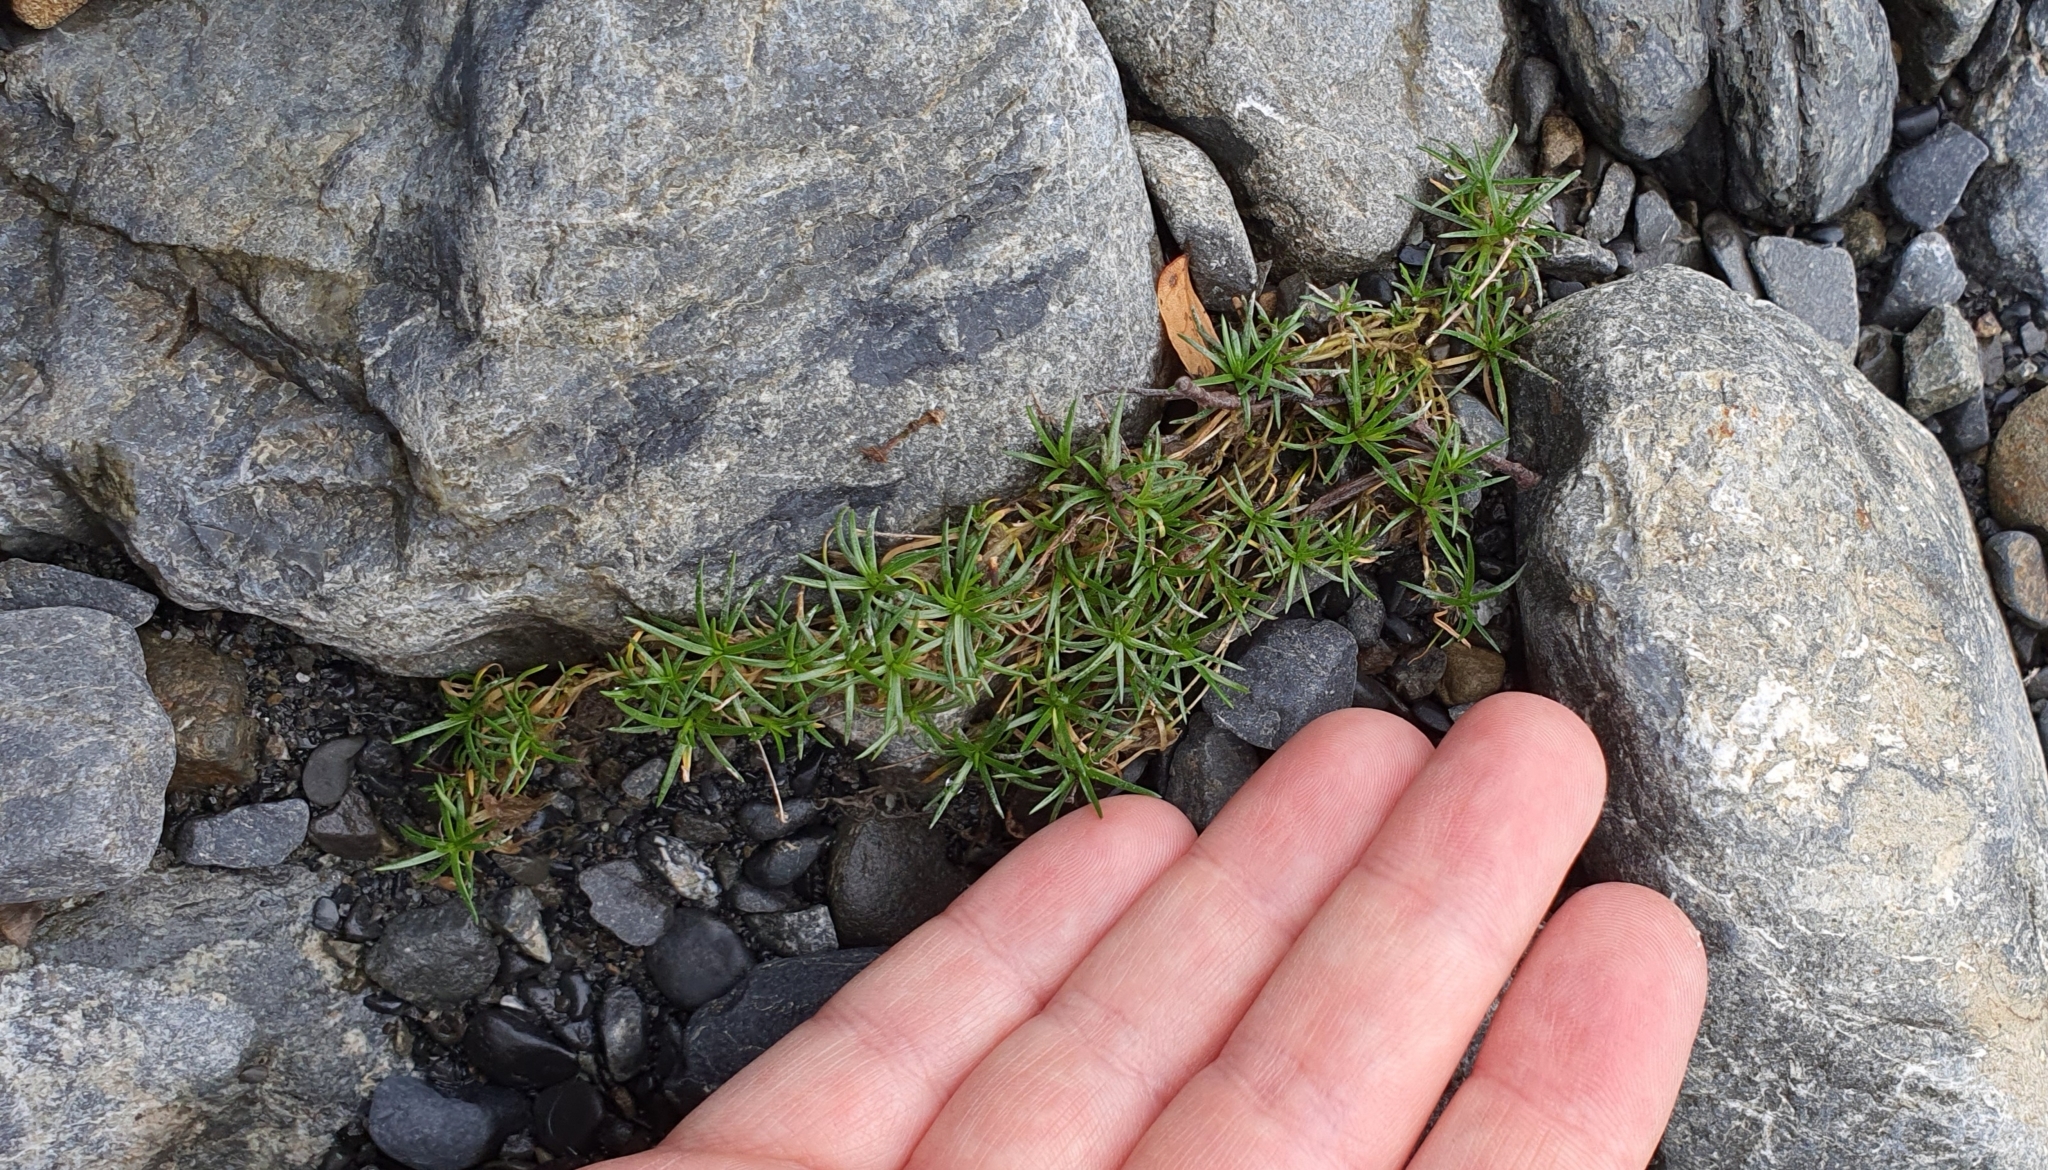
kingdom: Plantae
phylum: Tracheophyta
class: Magnoliopsida
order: Caryophyllales
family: Caryophyllaceae
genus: Sagina
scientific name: Sagina procumbens
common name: Procumbent pearlwort
